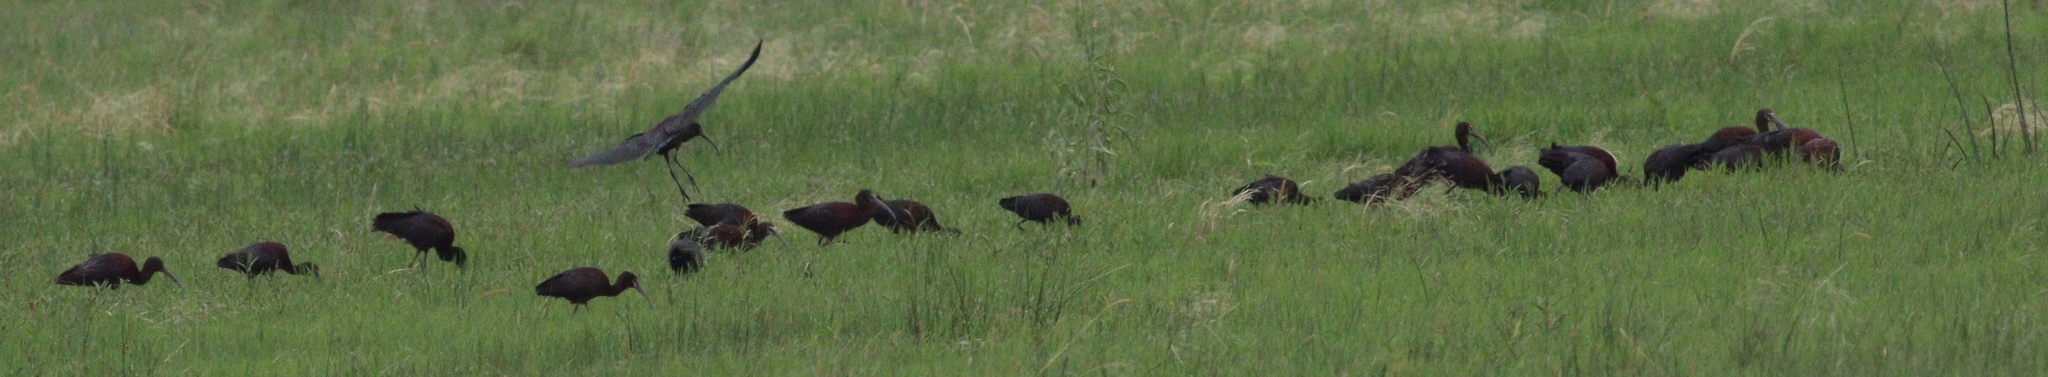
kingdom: Animalia
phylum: Chordata
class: Aves
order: Pelecaniformes
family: Threskiornithidae
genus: Plegadis
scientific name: Plegadis chihi
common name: White-faced ibis
